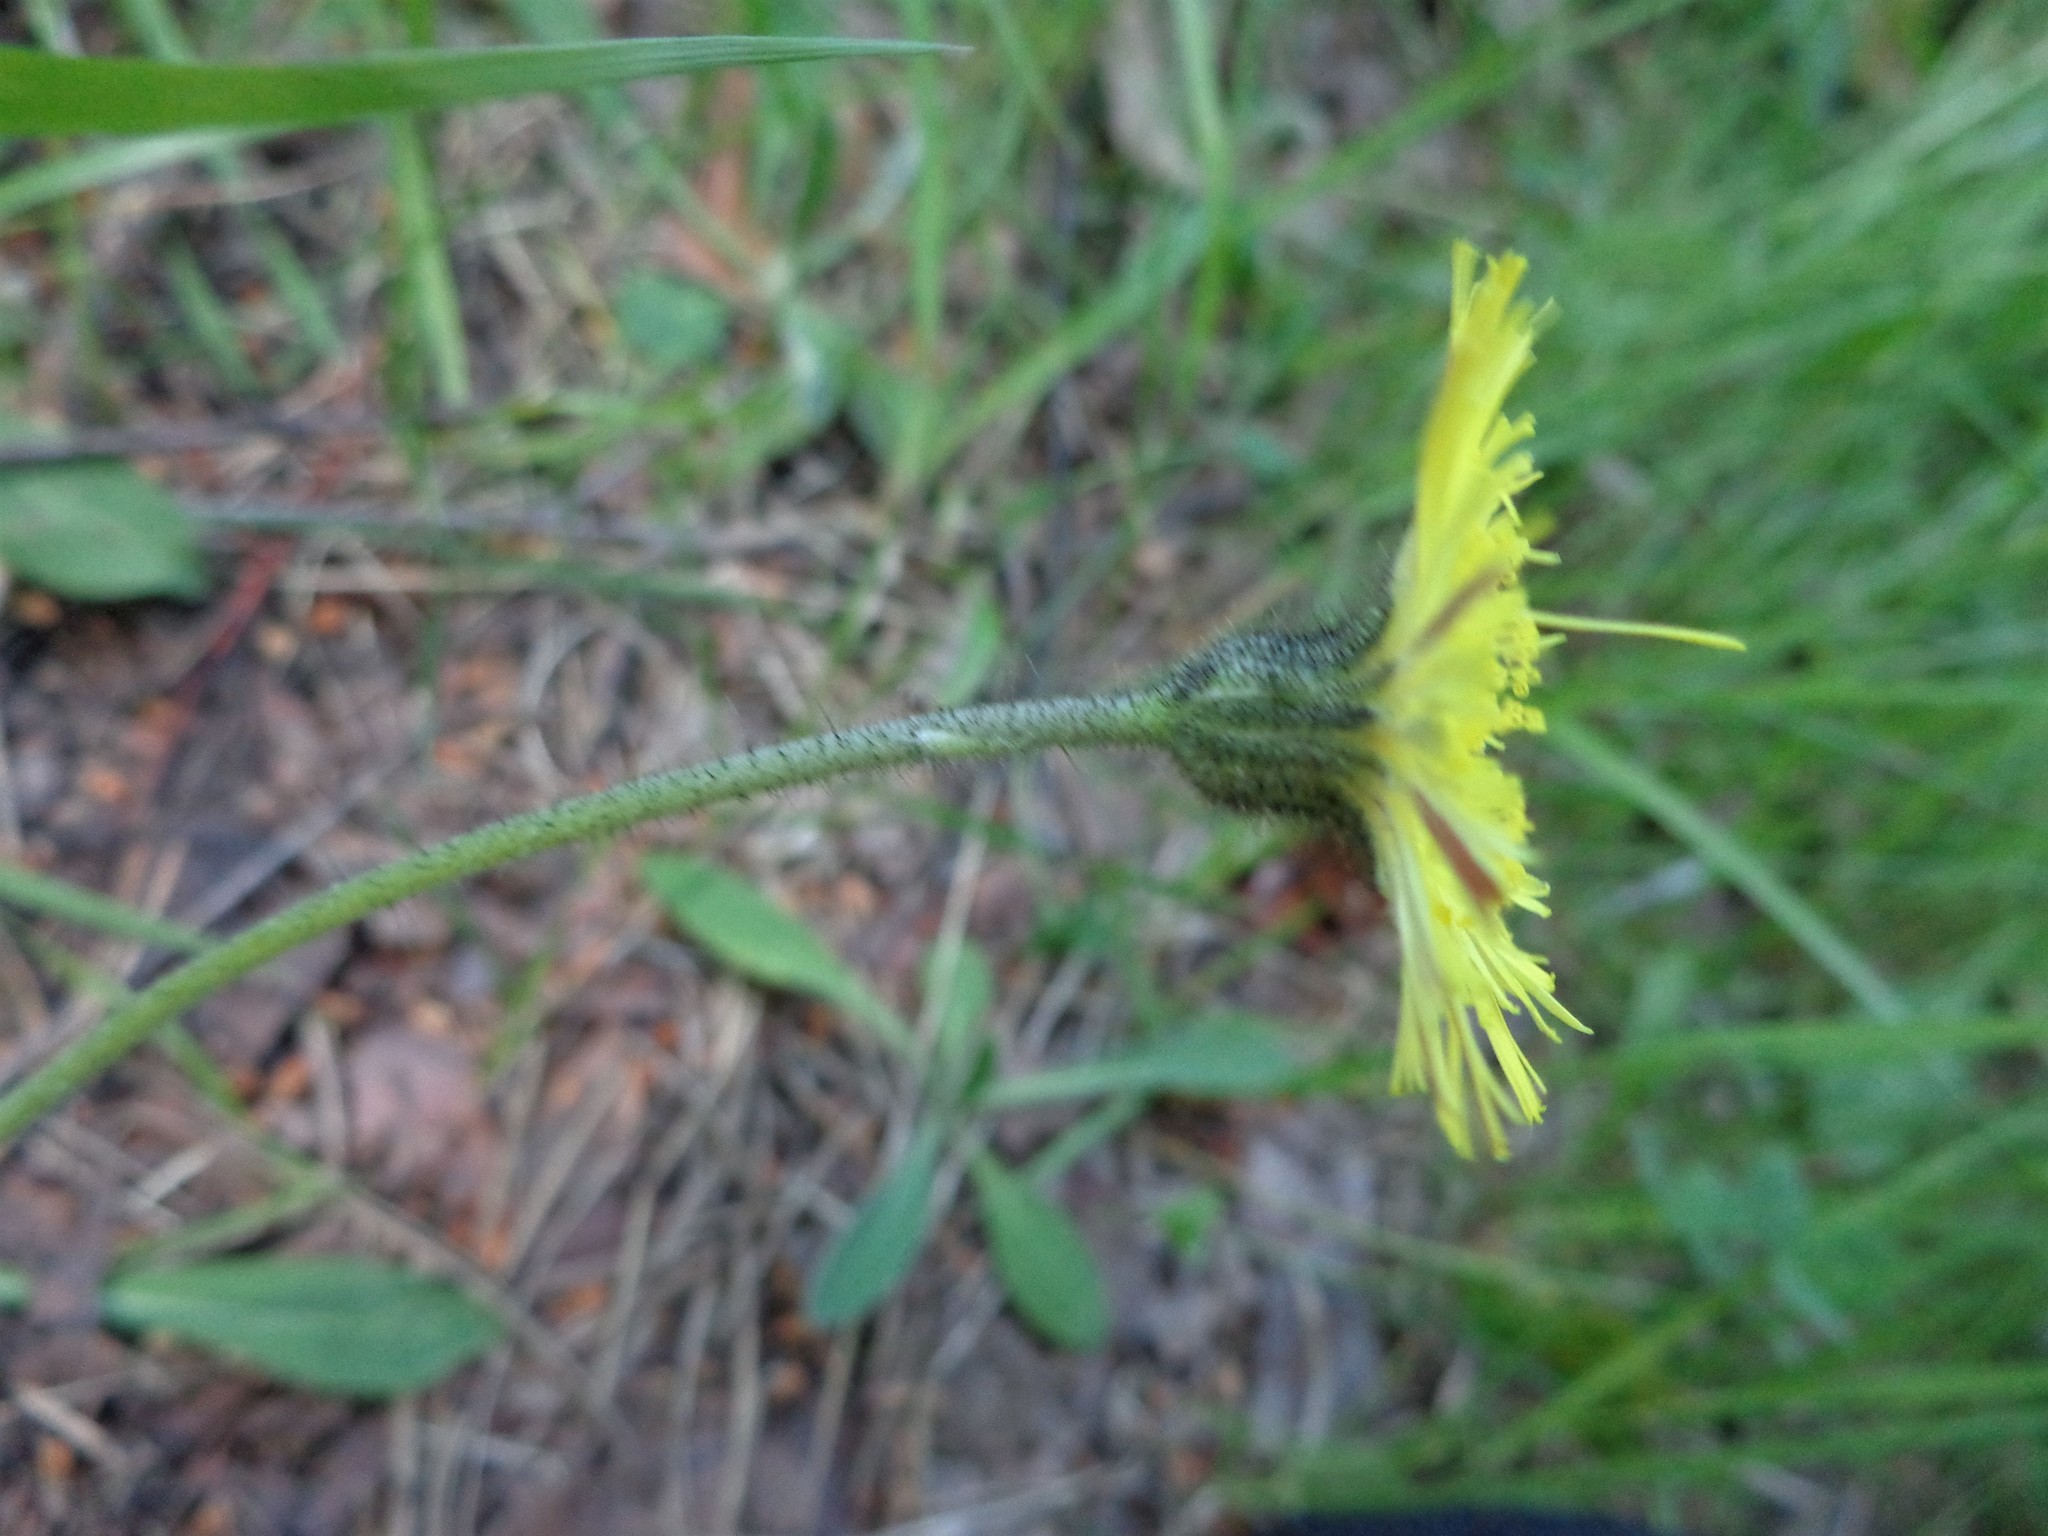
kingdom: Plantae
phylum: Tracheophyta
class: Magnoliopsida
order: Asterales
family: Asteraceae
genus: Pilosella
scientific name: Pilosella officinarum
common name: Mouse-ear hawkweed
